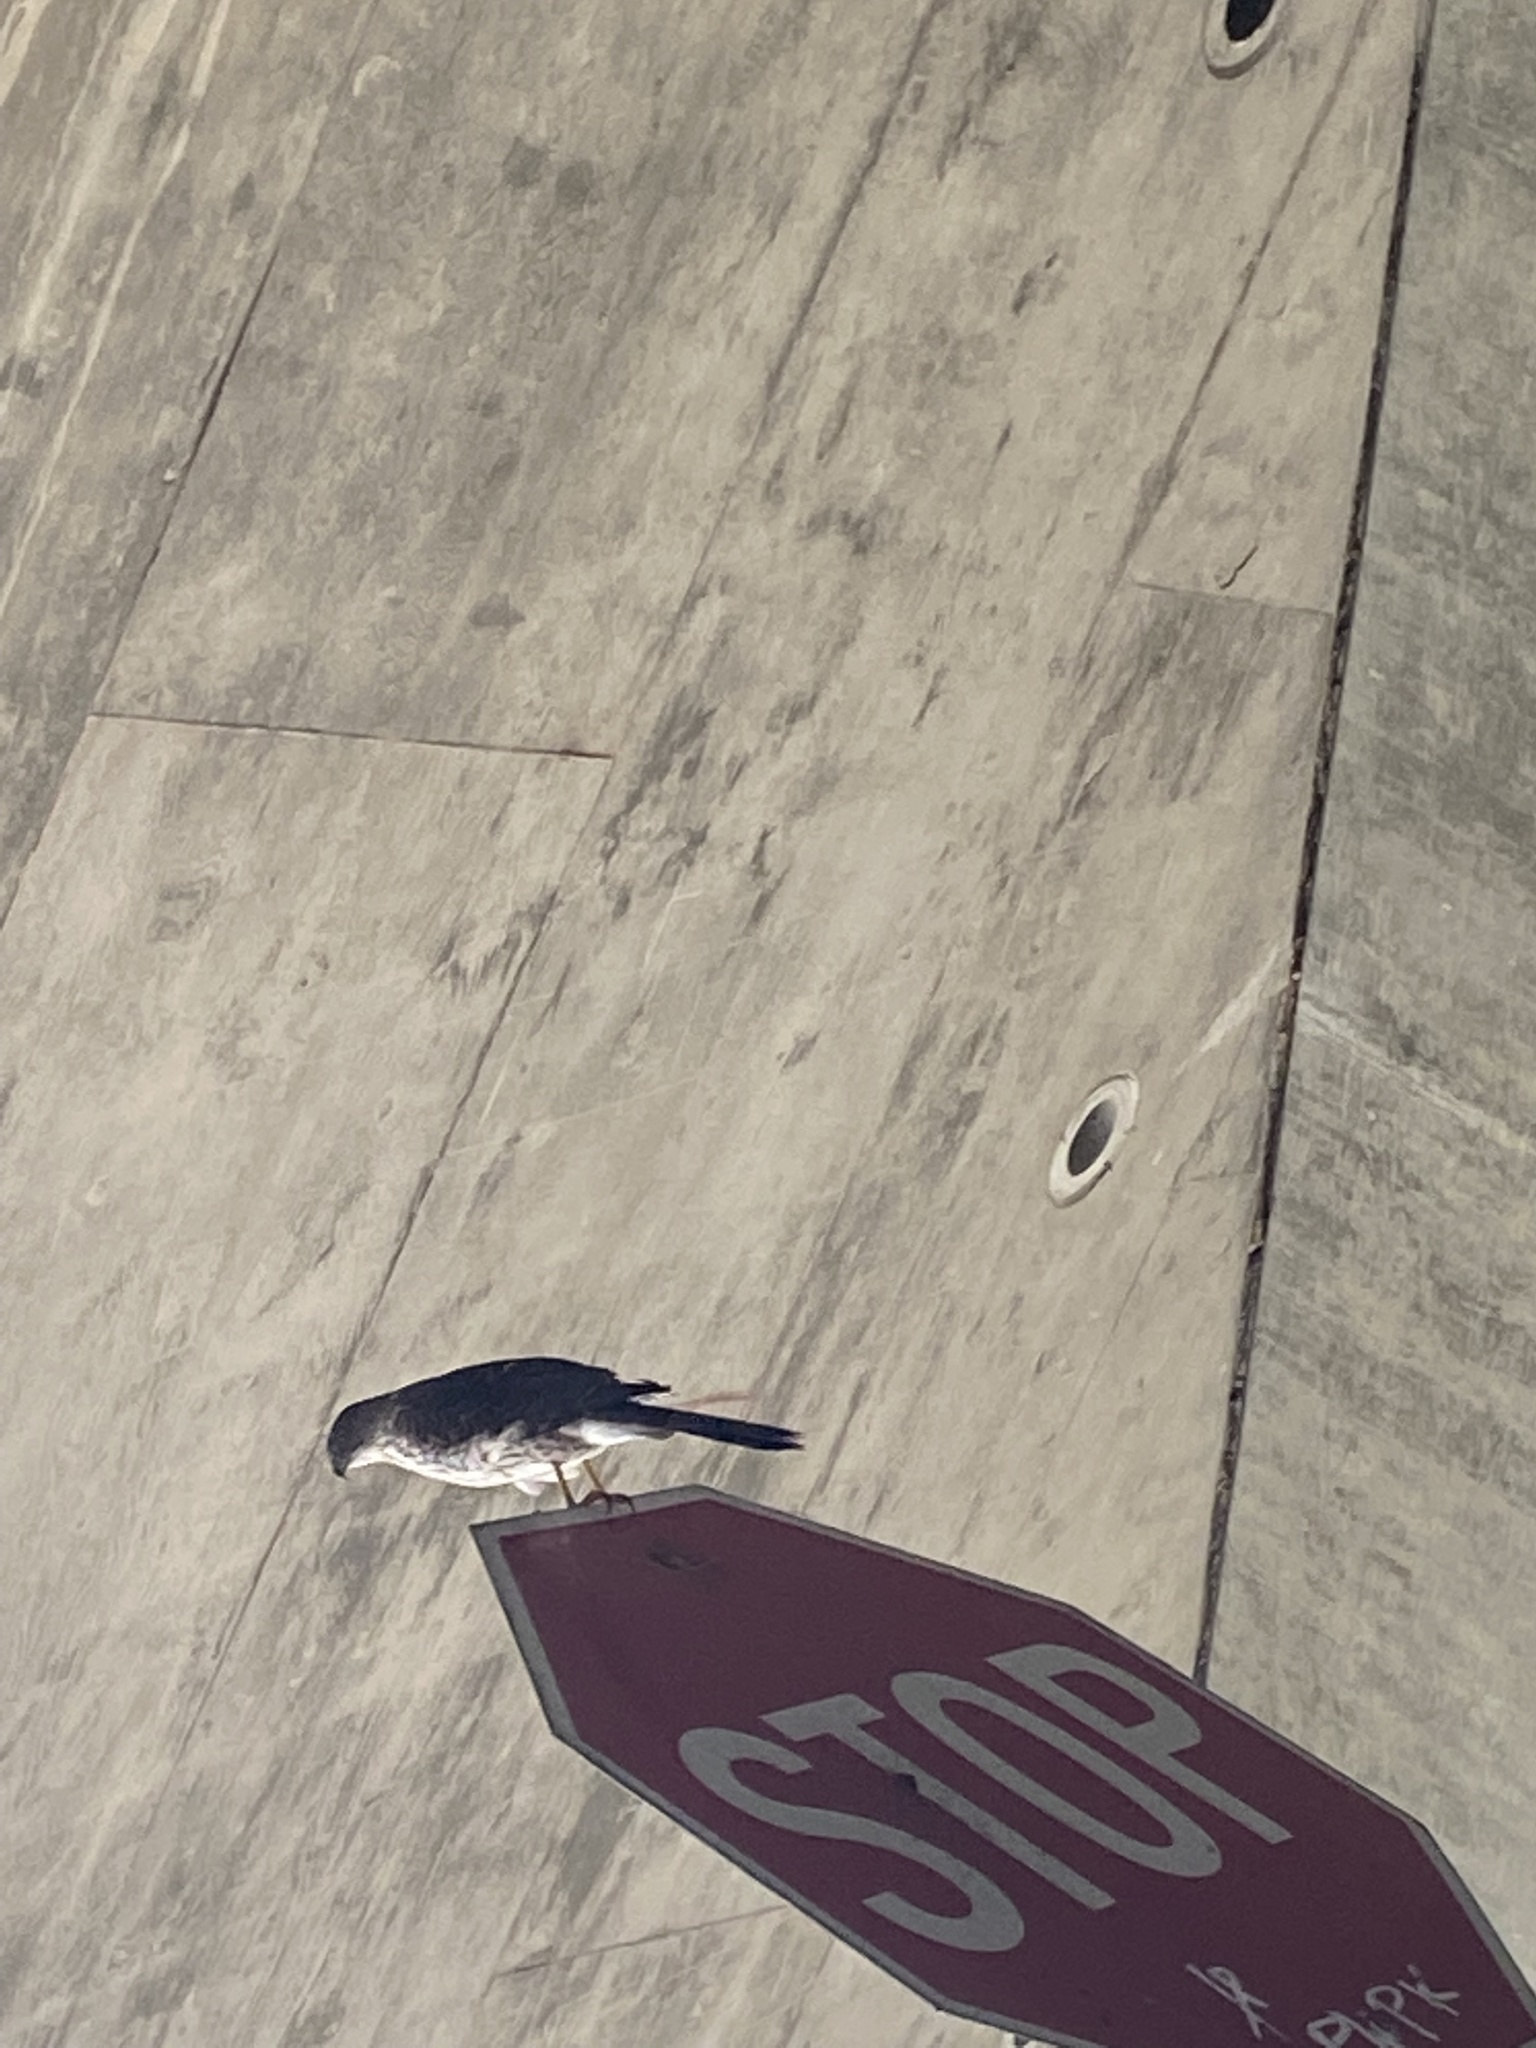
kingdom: Animalia
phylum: Chordata
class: Aves
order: Accipitriformes
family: Accipitridae
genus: Accipiter
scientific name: Accipiter cooperii
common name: Cooper's hawk
